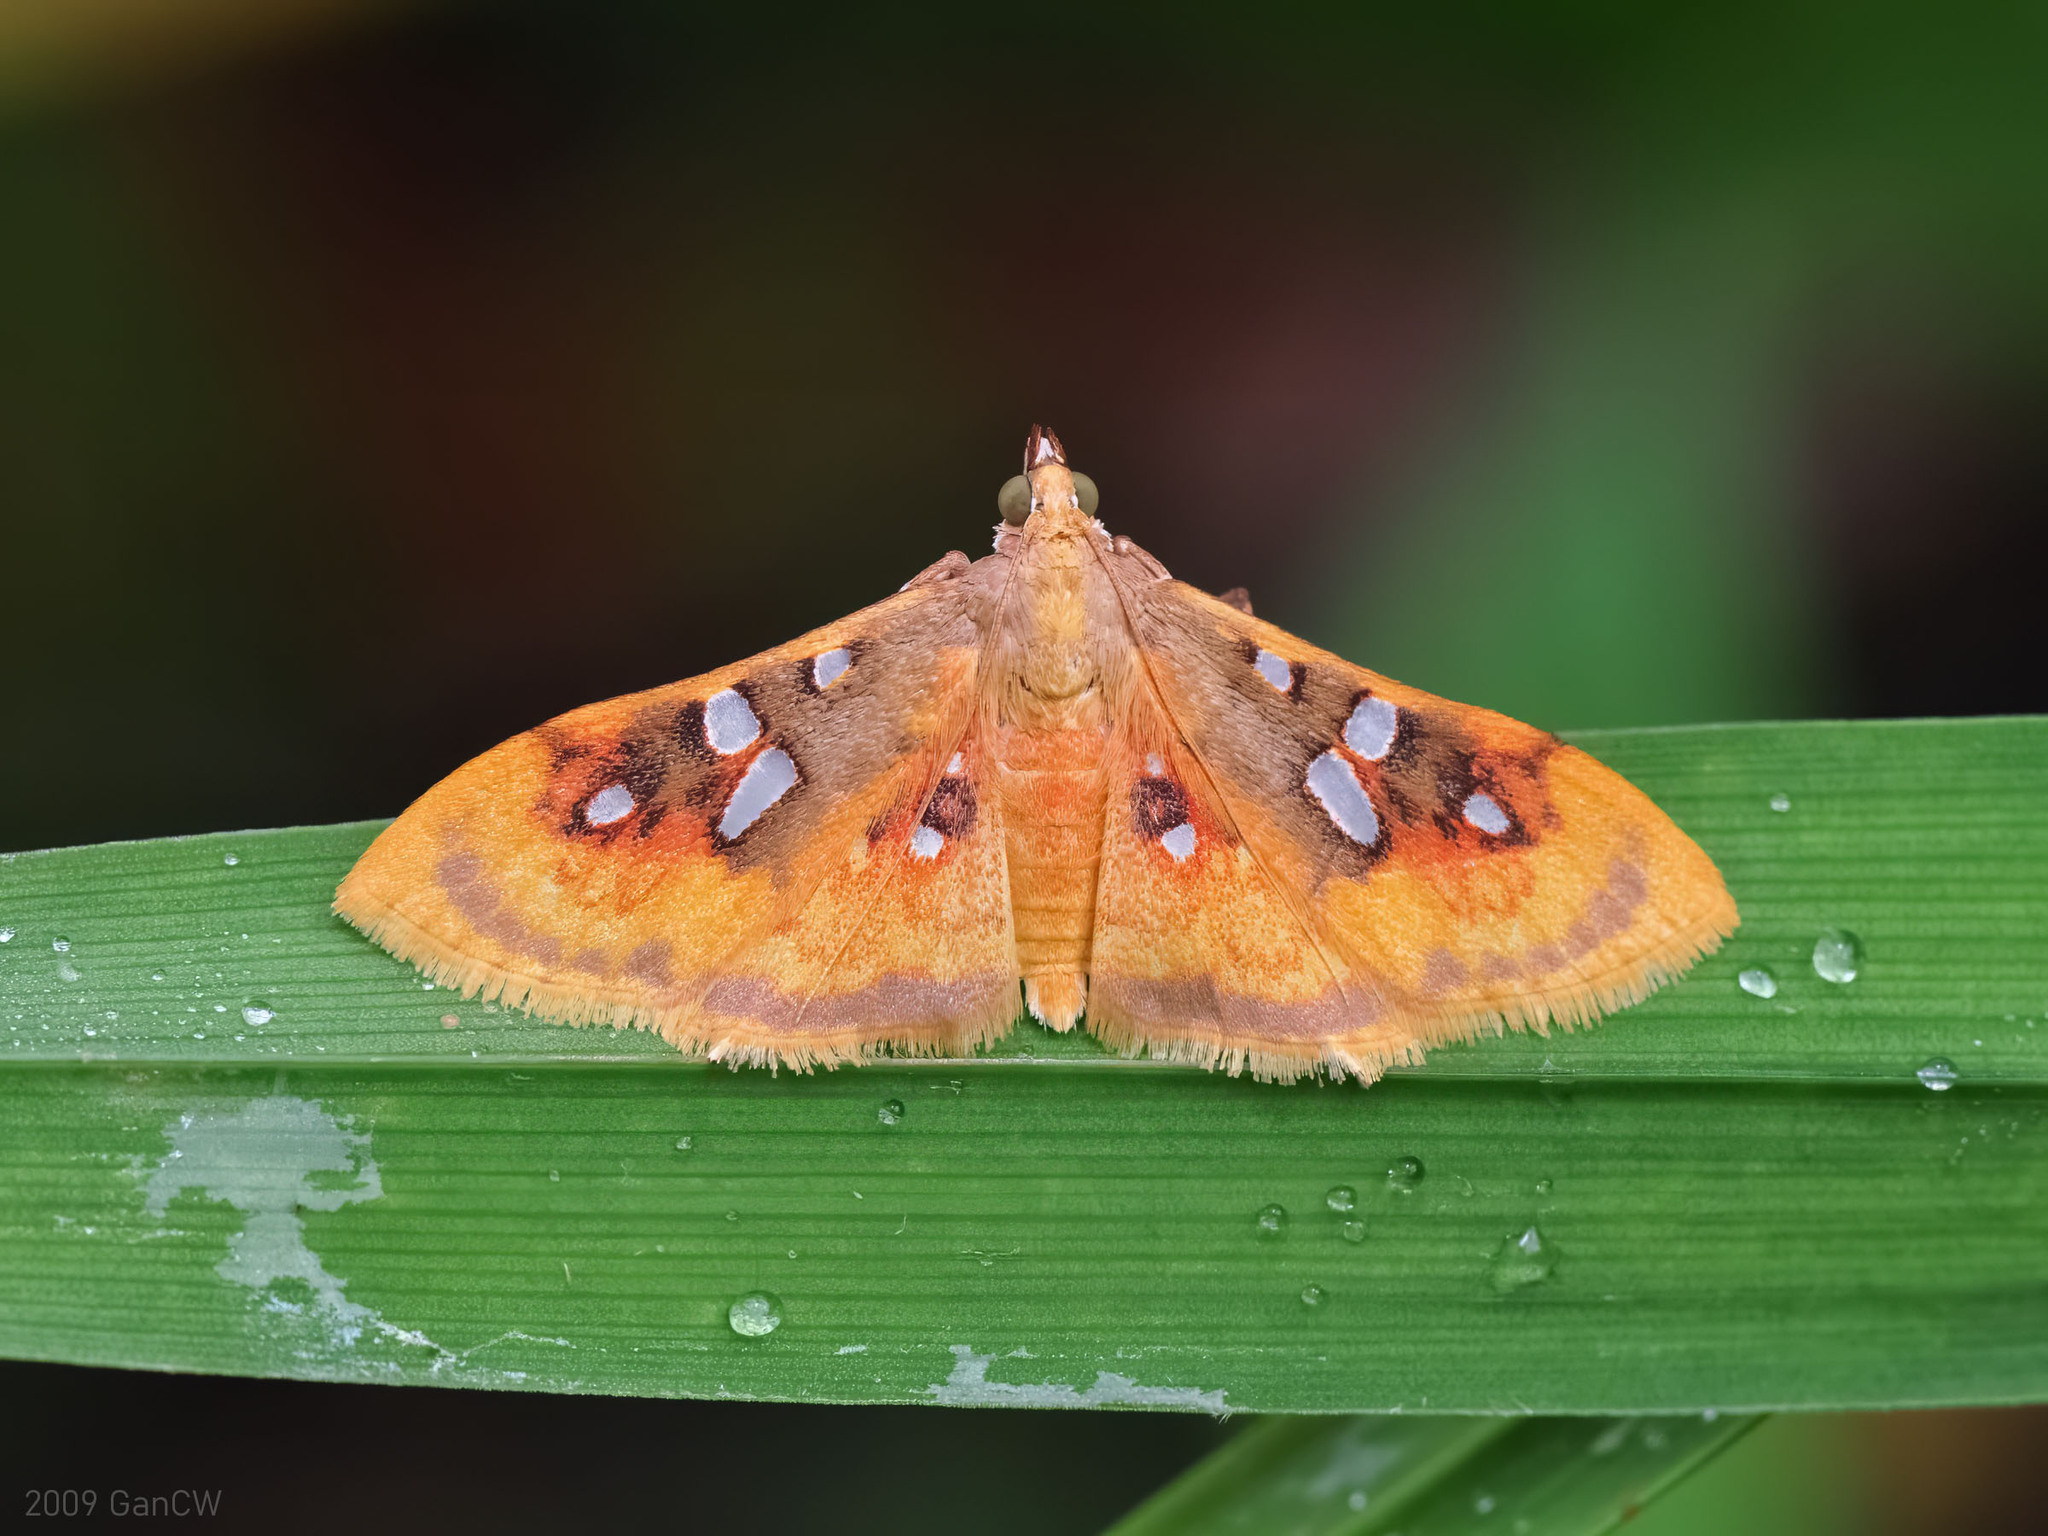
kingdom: Animalia
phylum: Arthropoda
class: Insecta
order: Lepidoptera
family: Crambidae
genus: Sameodes
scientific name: Sameodes
